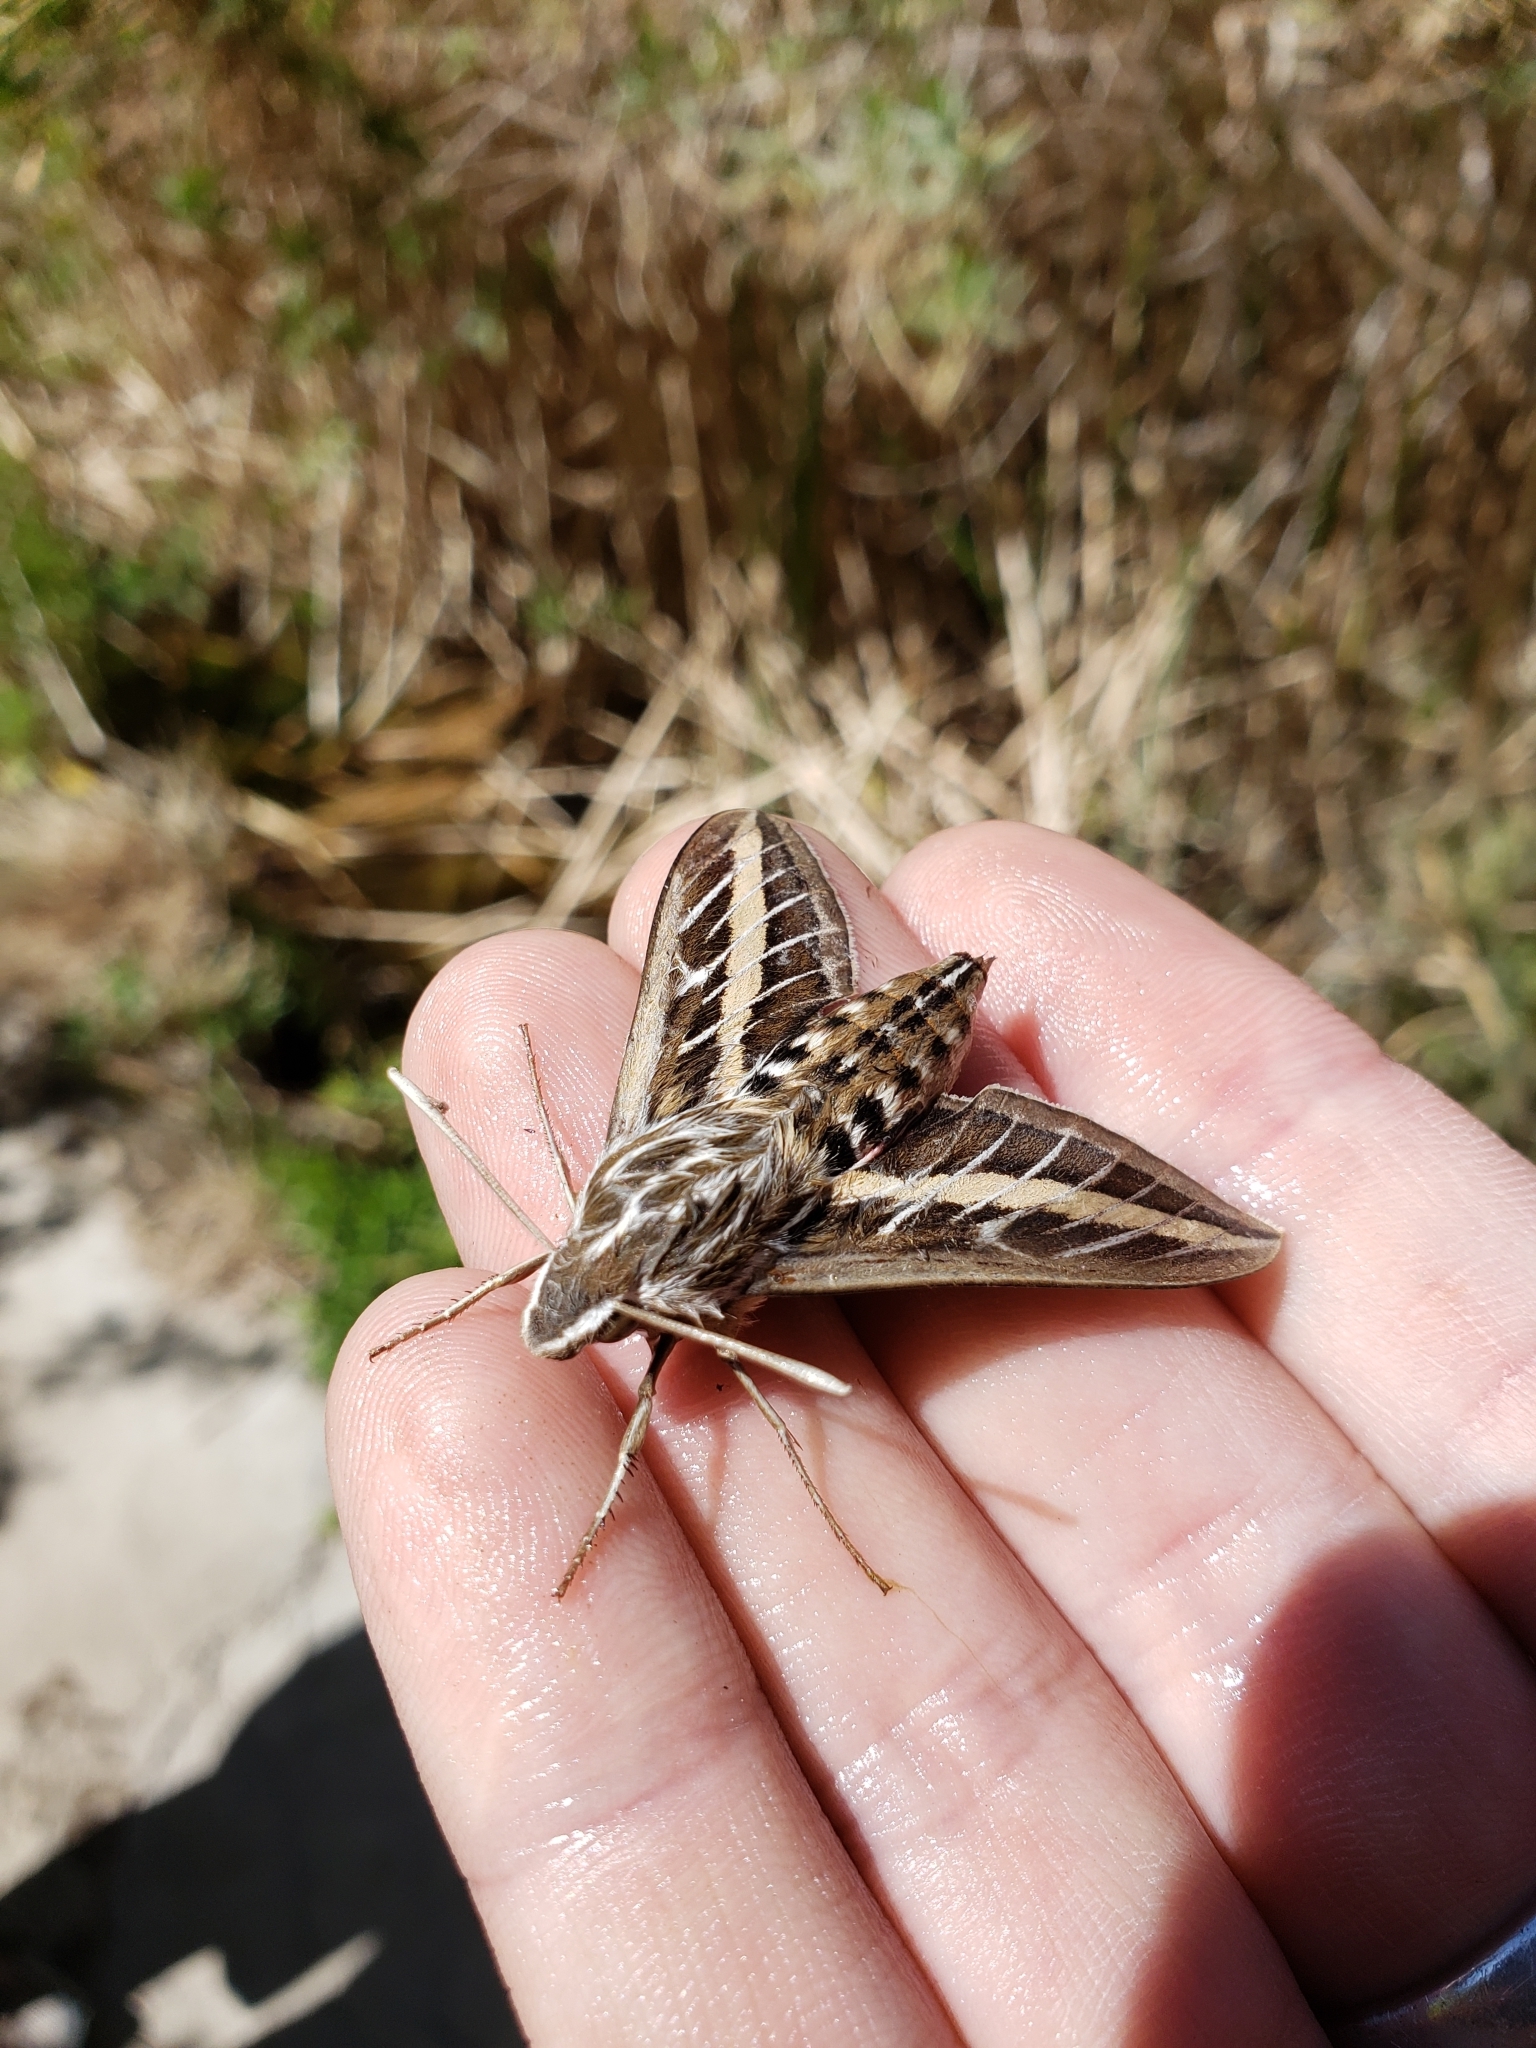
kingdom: Animalia
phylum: Arthropoda
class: Insecta
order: Lepidoptera
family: Sphingidae
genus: Hyles
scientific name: Hyles lineata
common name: White-lined sphinx
